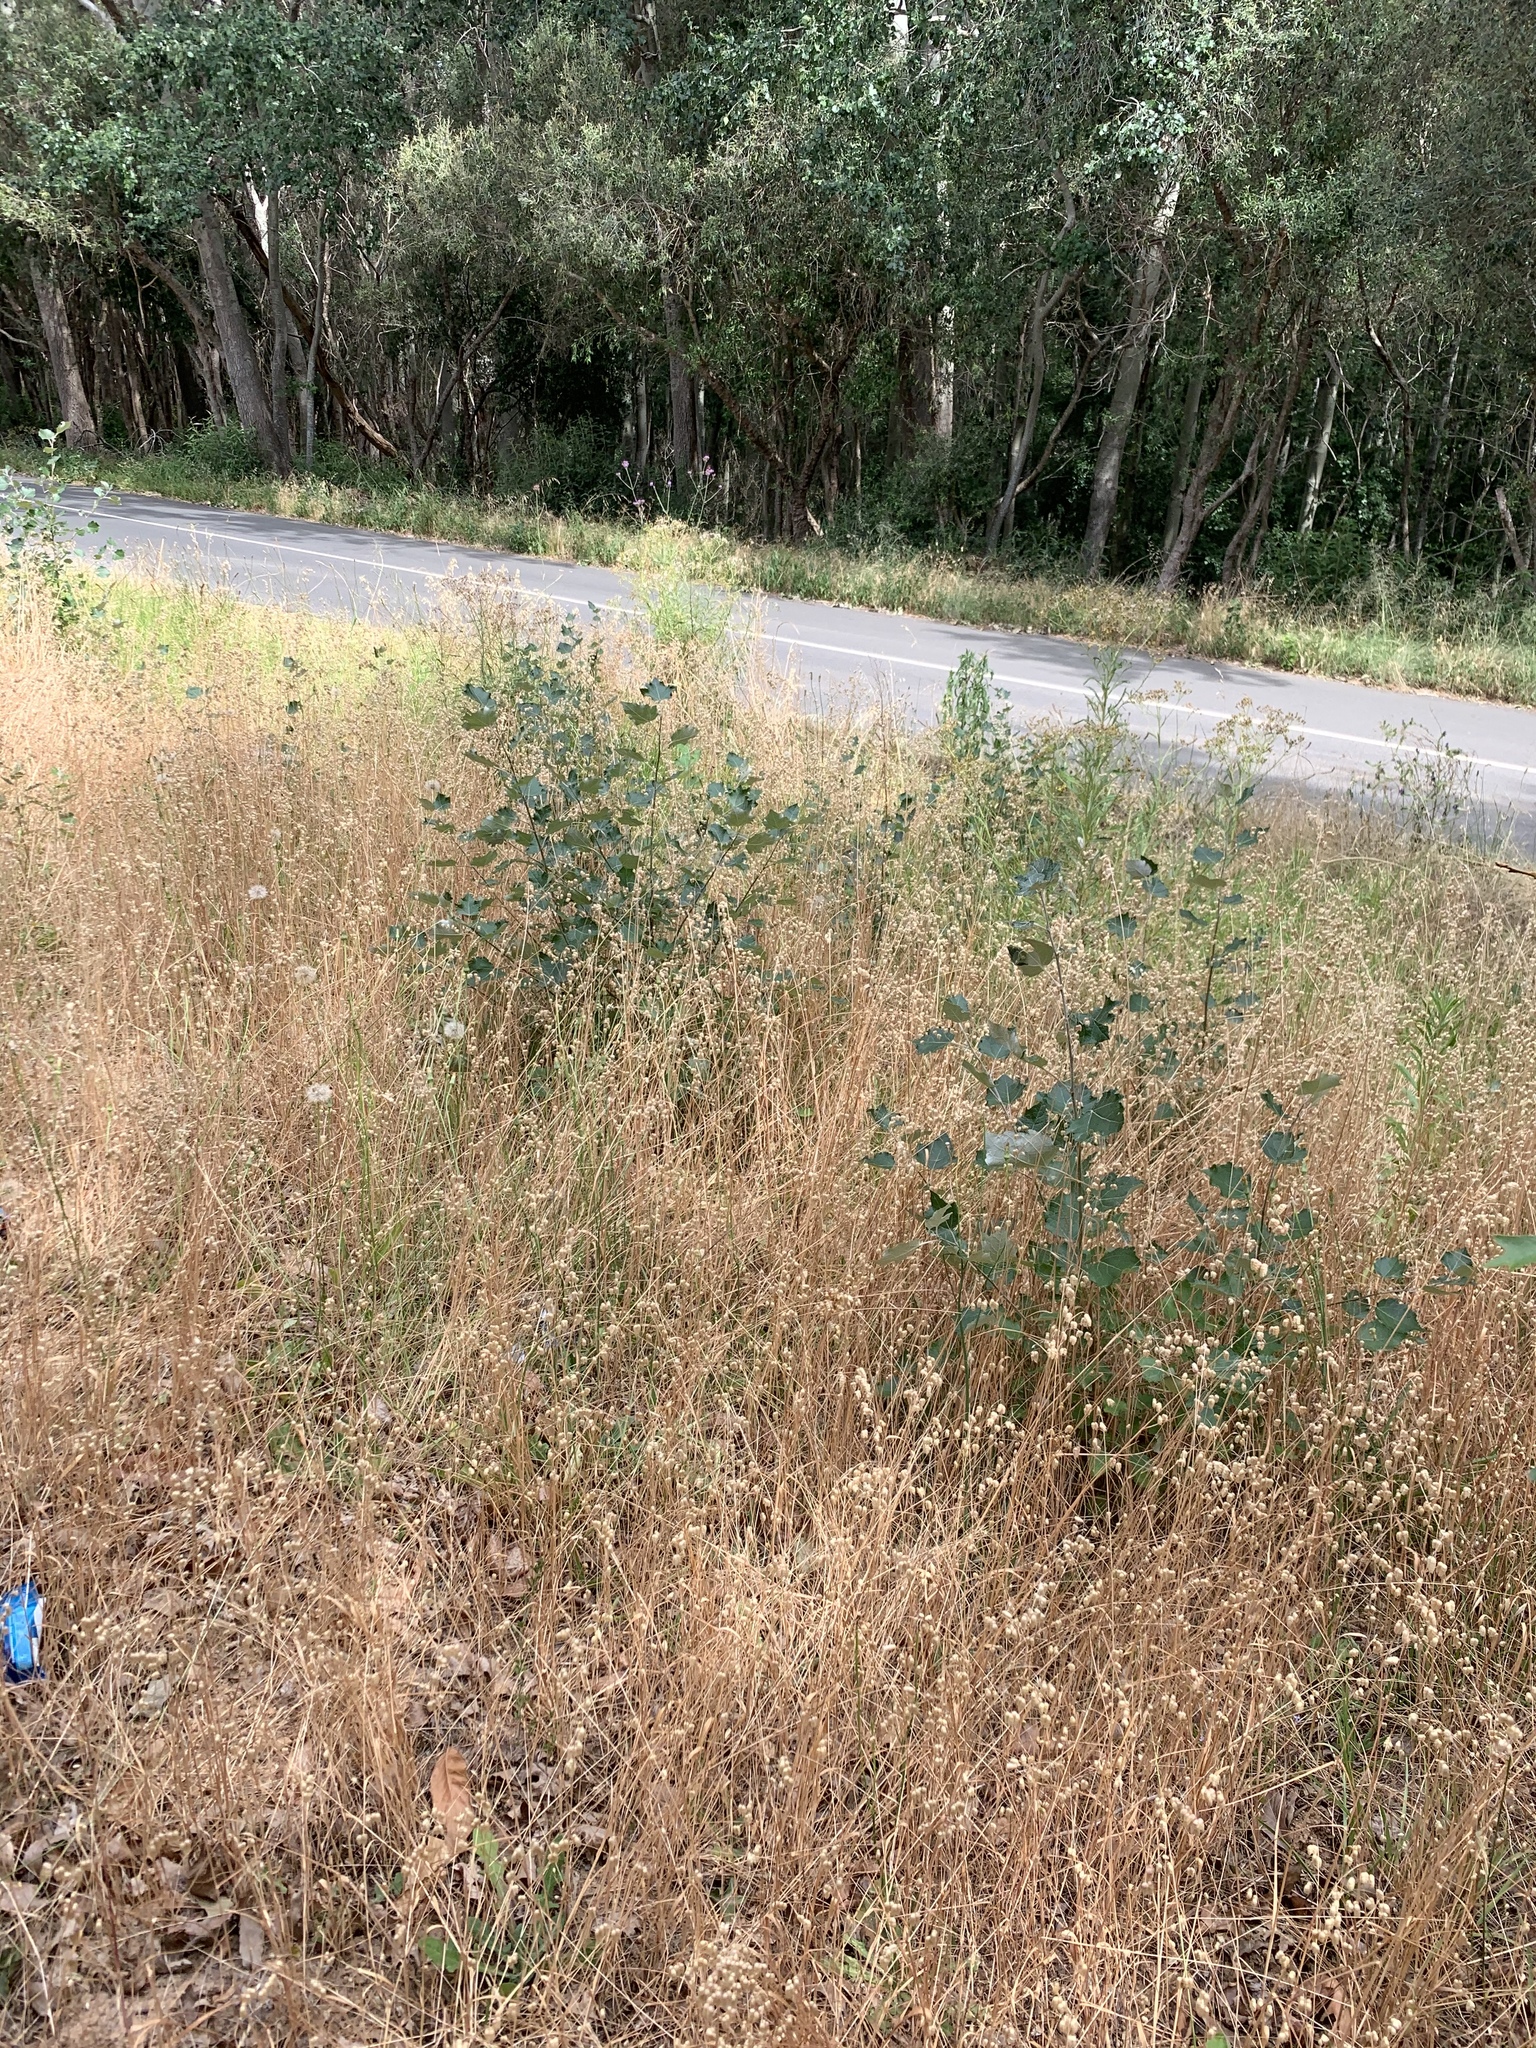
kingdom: Plantae
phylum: Tracheophyta
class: Magnoliopsida
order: Malpighiales
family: Salicaceae
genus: Populus
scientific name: Populus canescens
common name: Gray poplar
